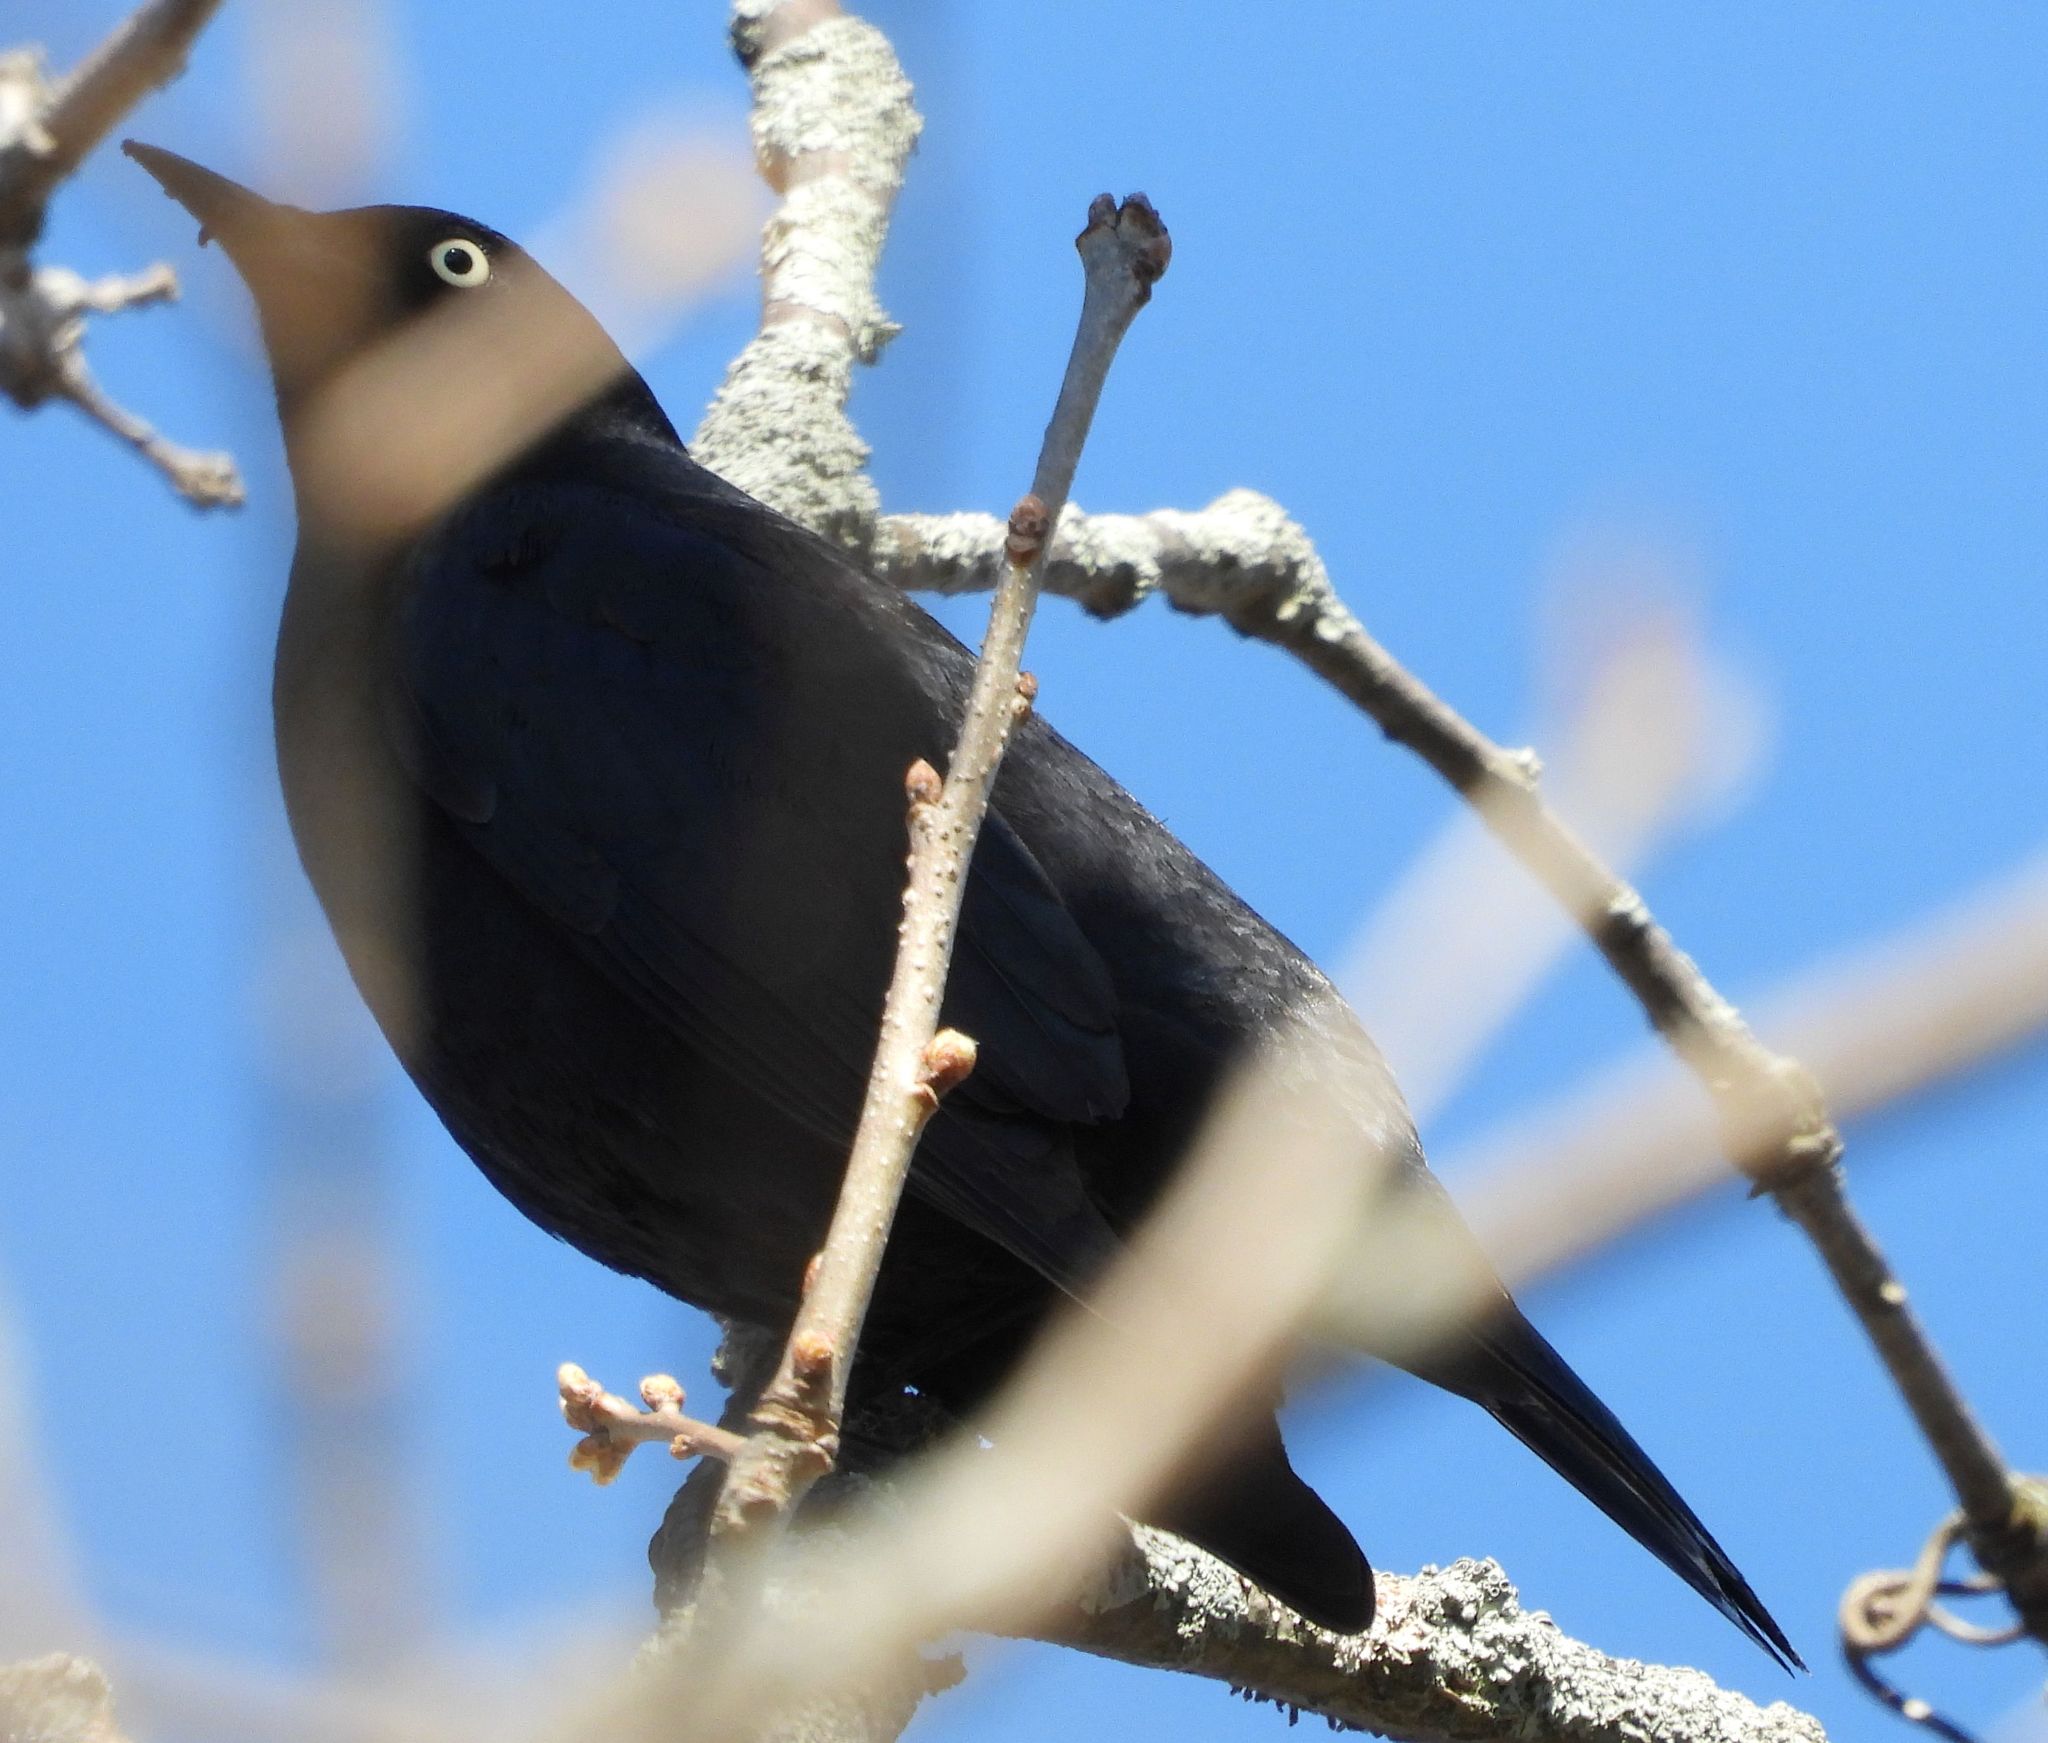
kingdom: Animalia
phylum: Chordata
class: Aves
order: Passeriformes
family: Icteridae
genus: Euphagus
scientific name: Euphagus carolinus
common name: Rusty blackbird
